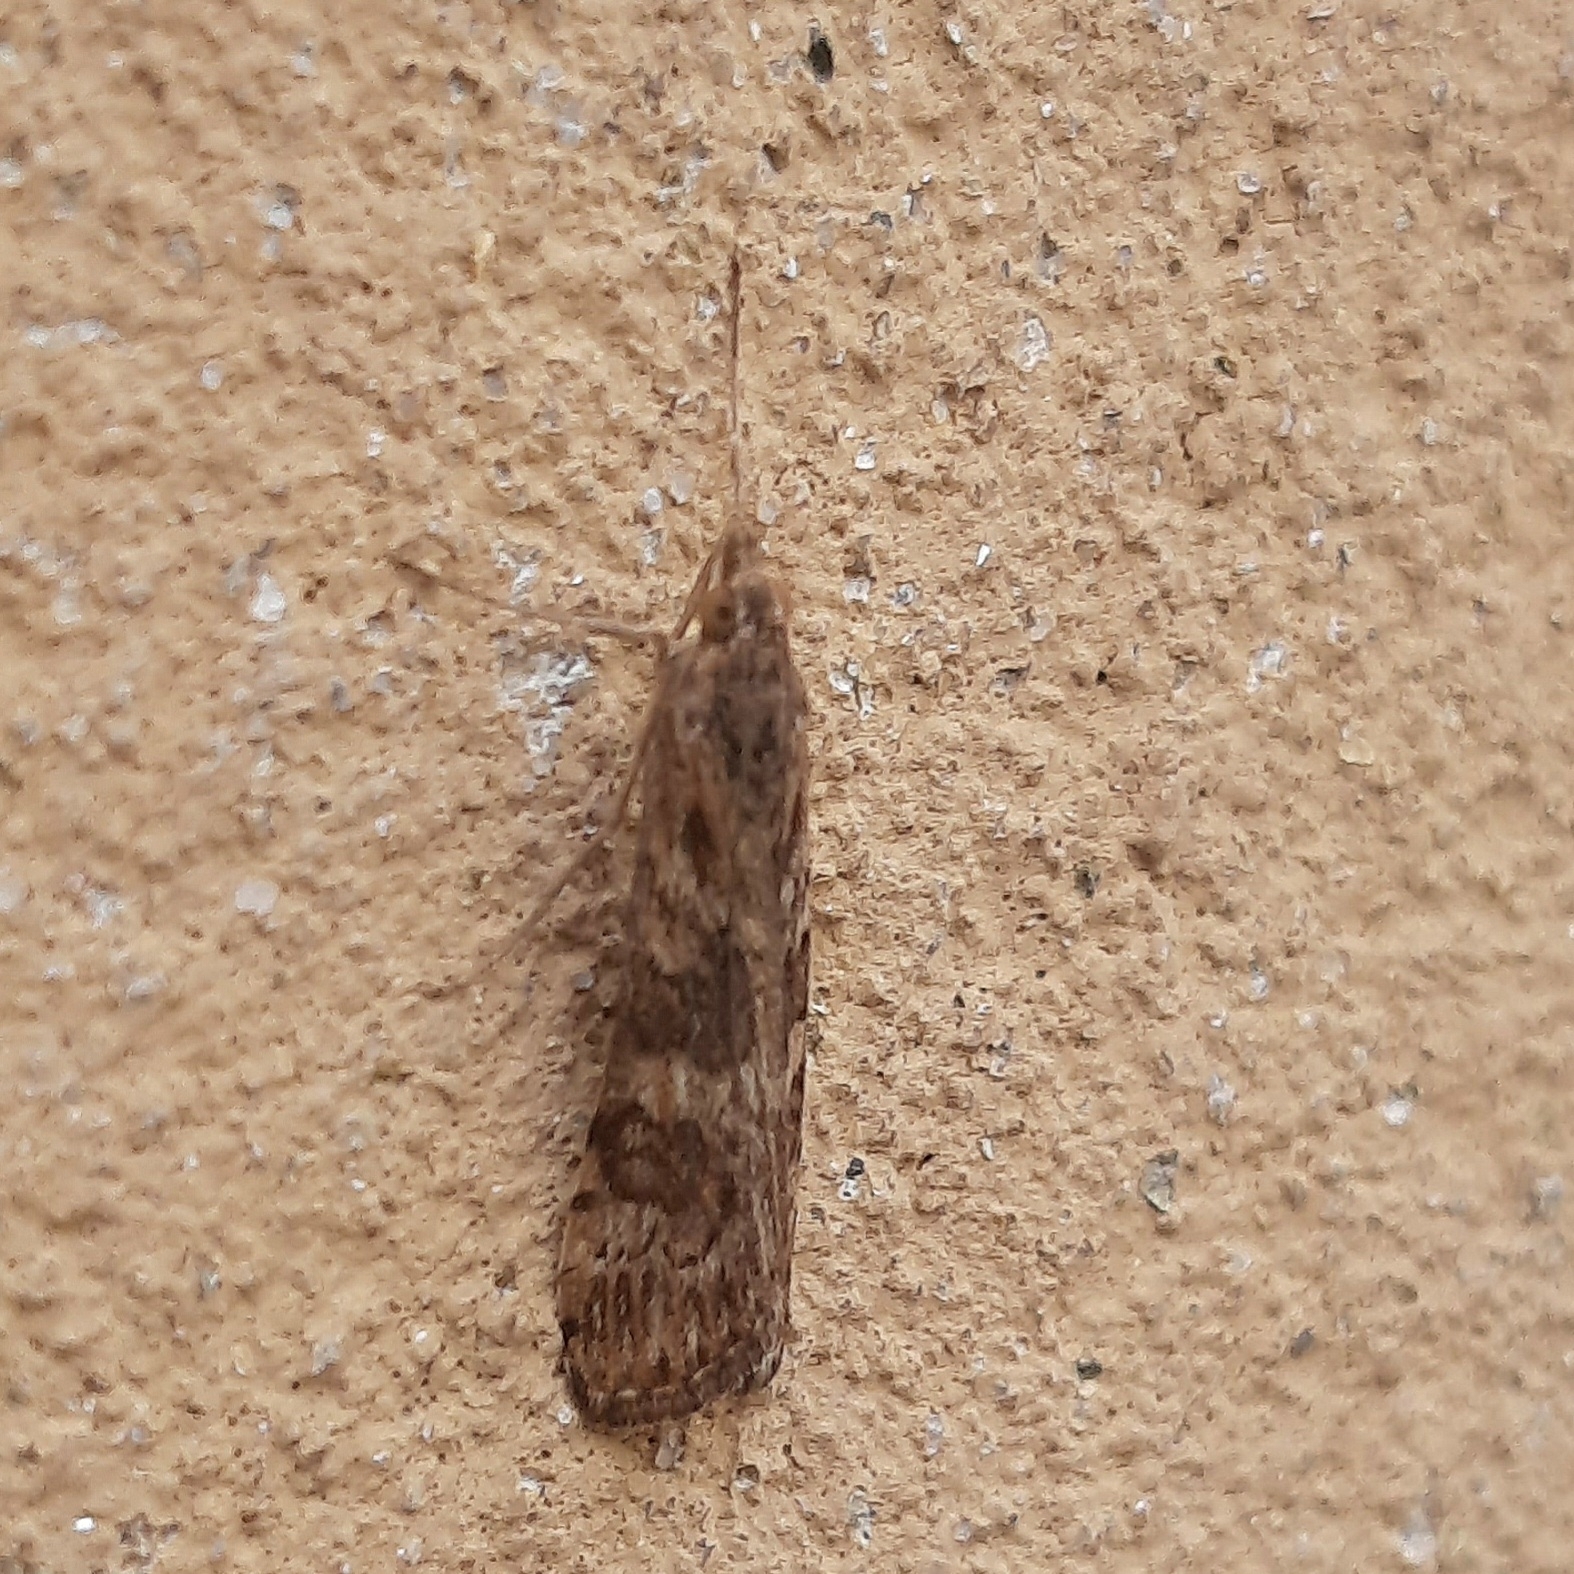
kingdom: Animalia
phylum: Arthropoda
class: Insecta
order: Lepidoptera
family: Crambidae
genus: Nomophila
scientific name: Nomophila noctuella
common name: Rush veneer
